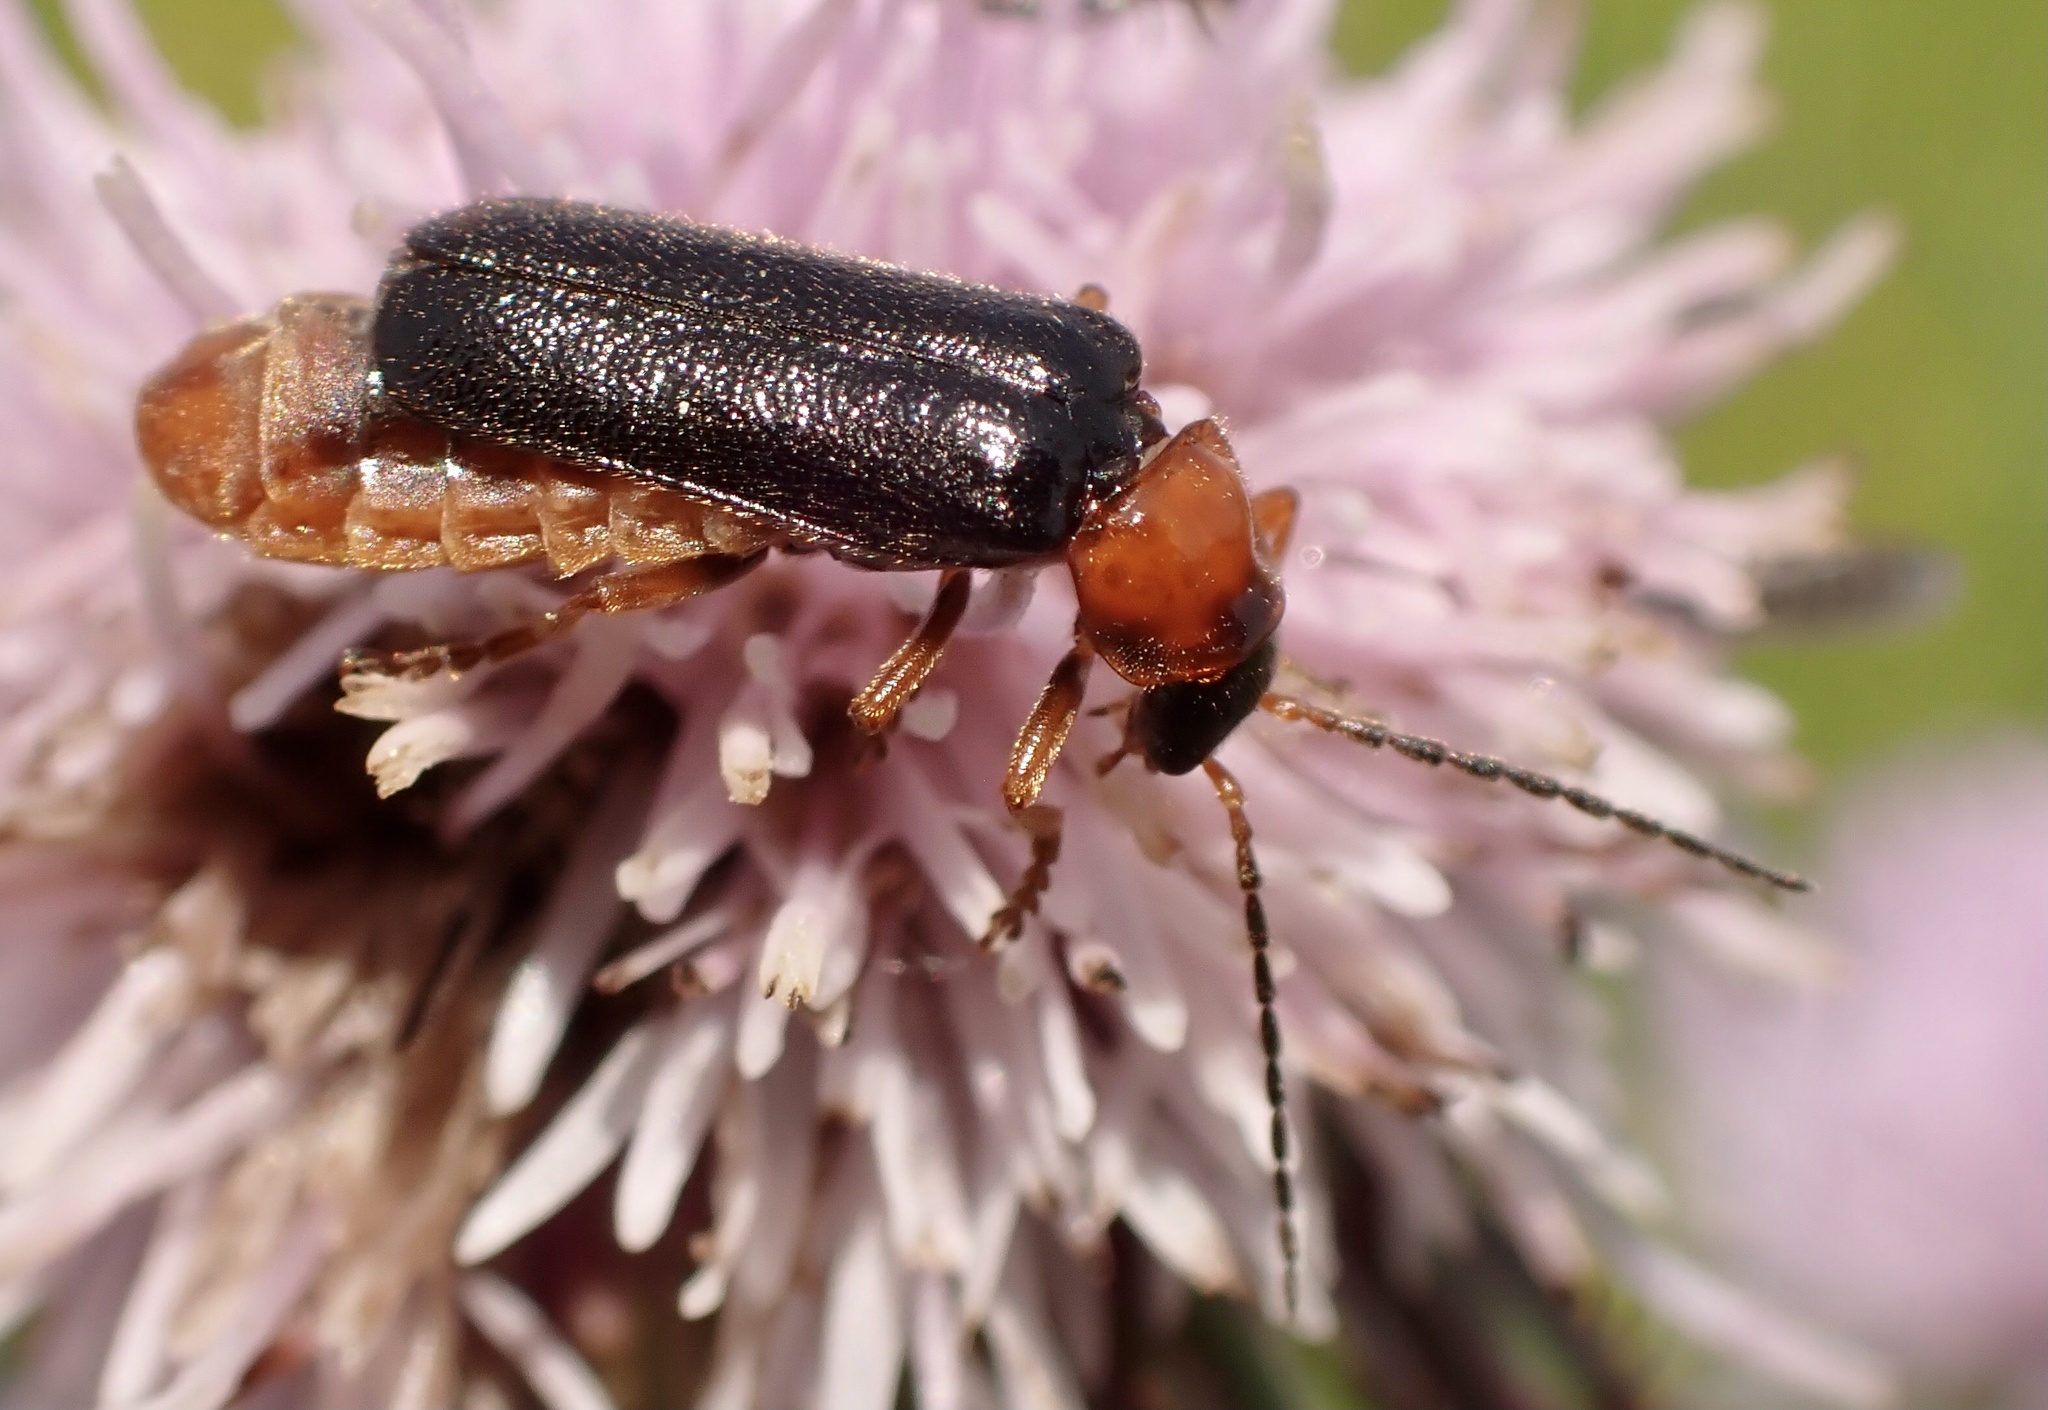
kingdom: Animalia
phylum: Arthropoda
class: Insecta
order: Coleoptera
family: Cantharidae
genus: Cantharis
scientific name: Cantharis flavilabris
